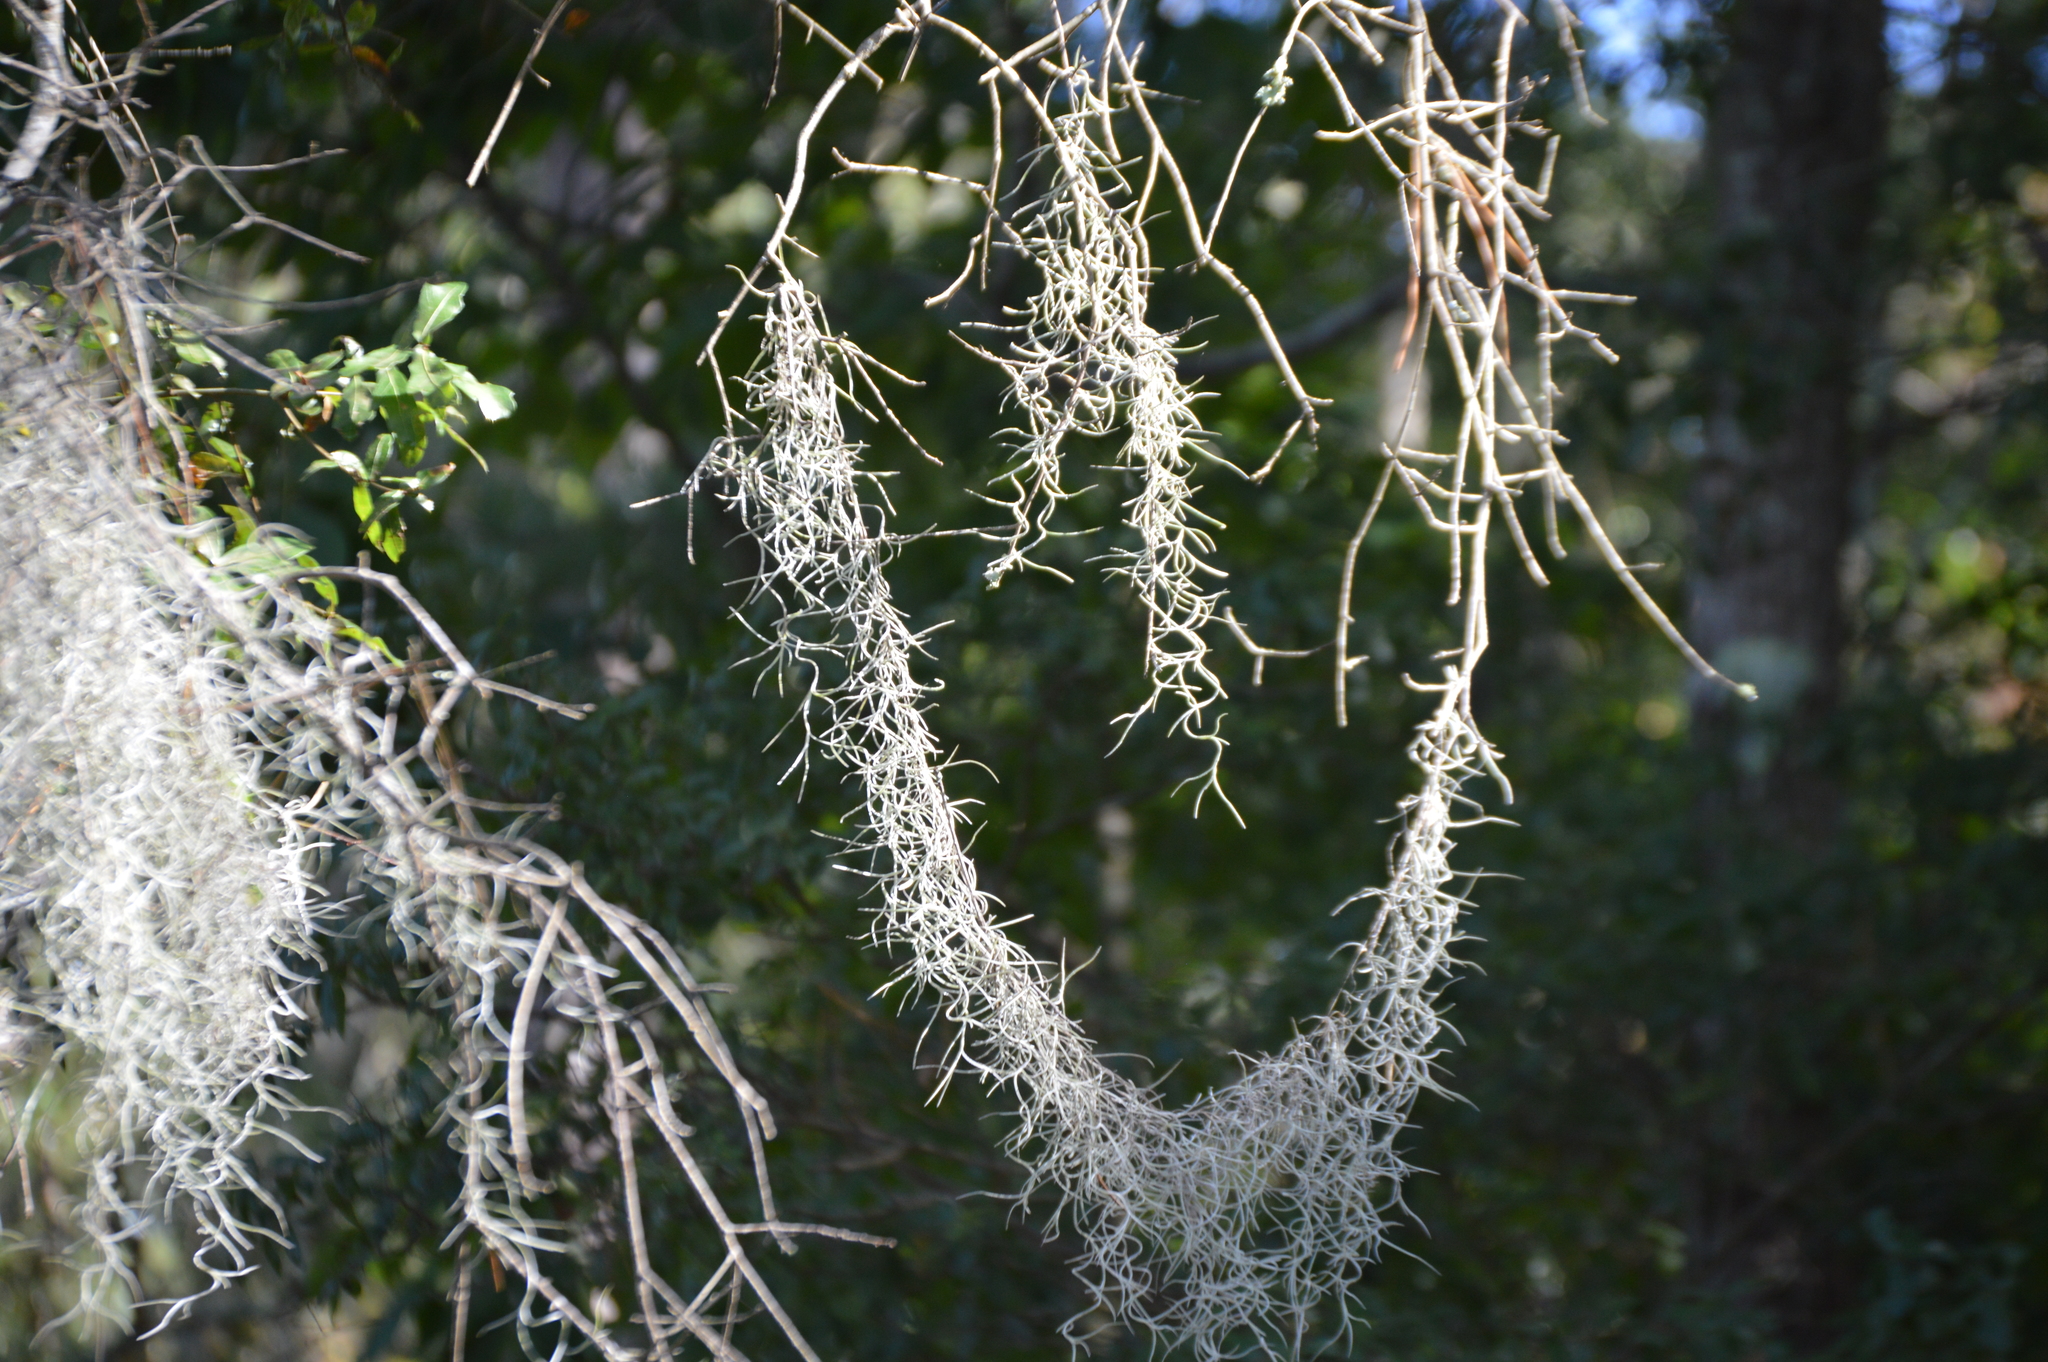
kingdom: Plantae
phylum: Tracheophyta
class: Liliopsida
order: Poales
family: Bromeliaceae
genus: Tillandsia
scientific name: Tillandsia usneoides
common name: Spanish moss
